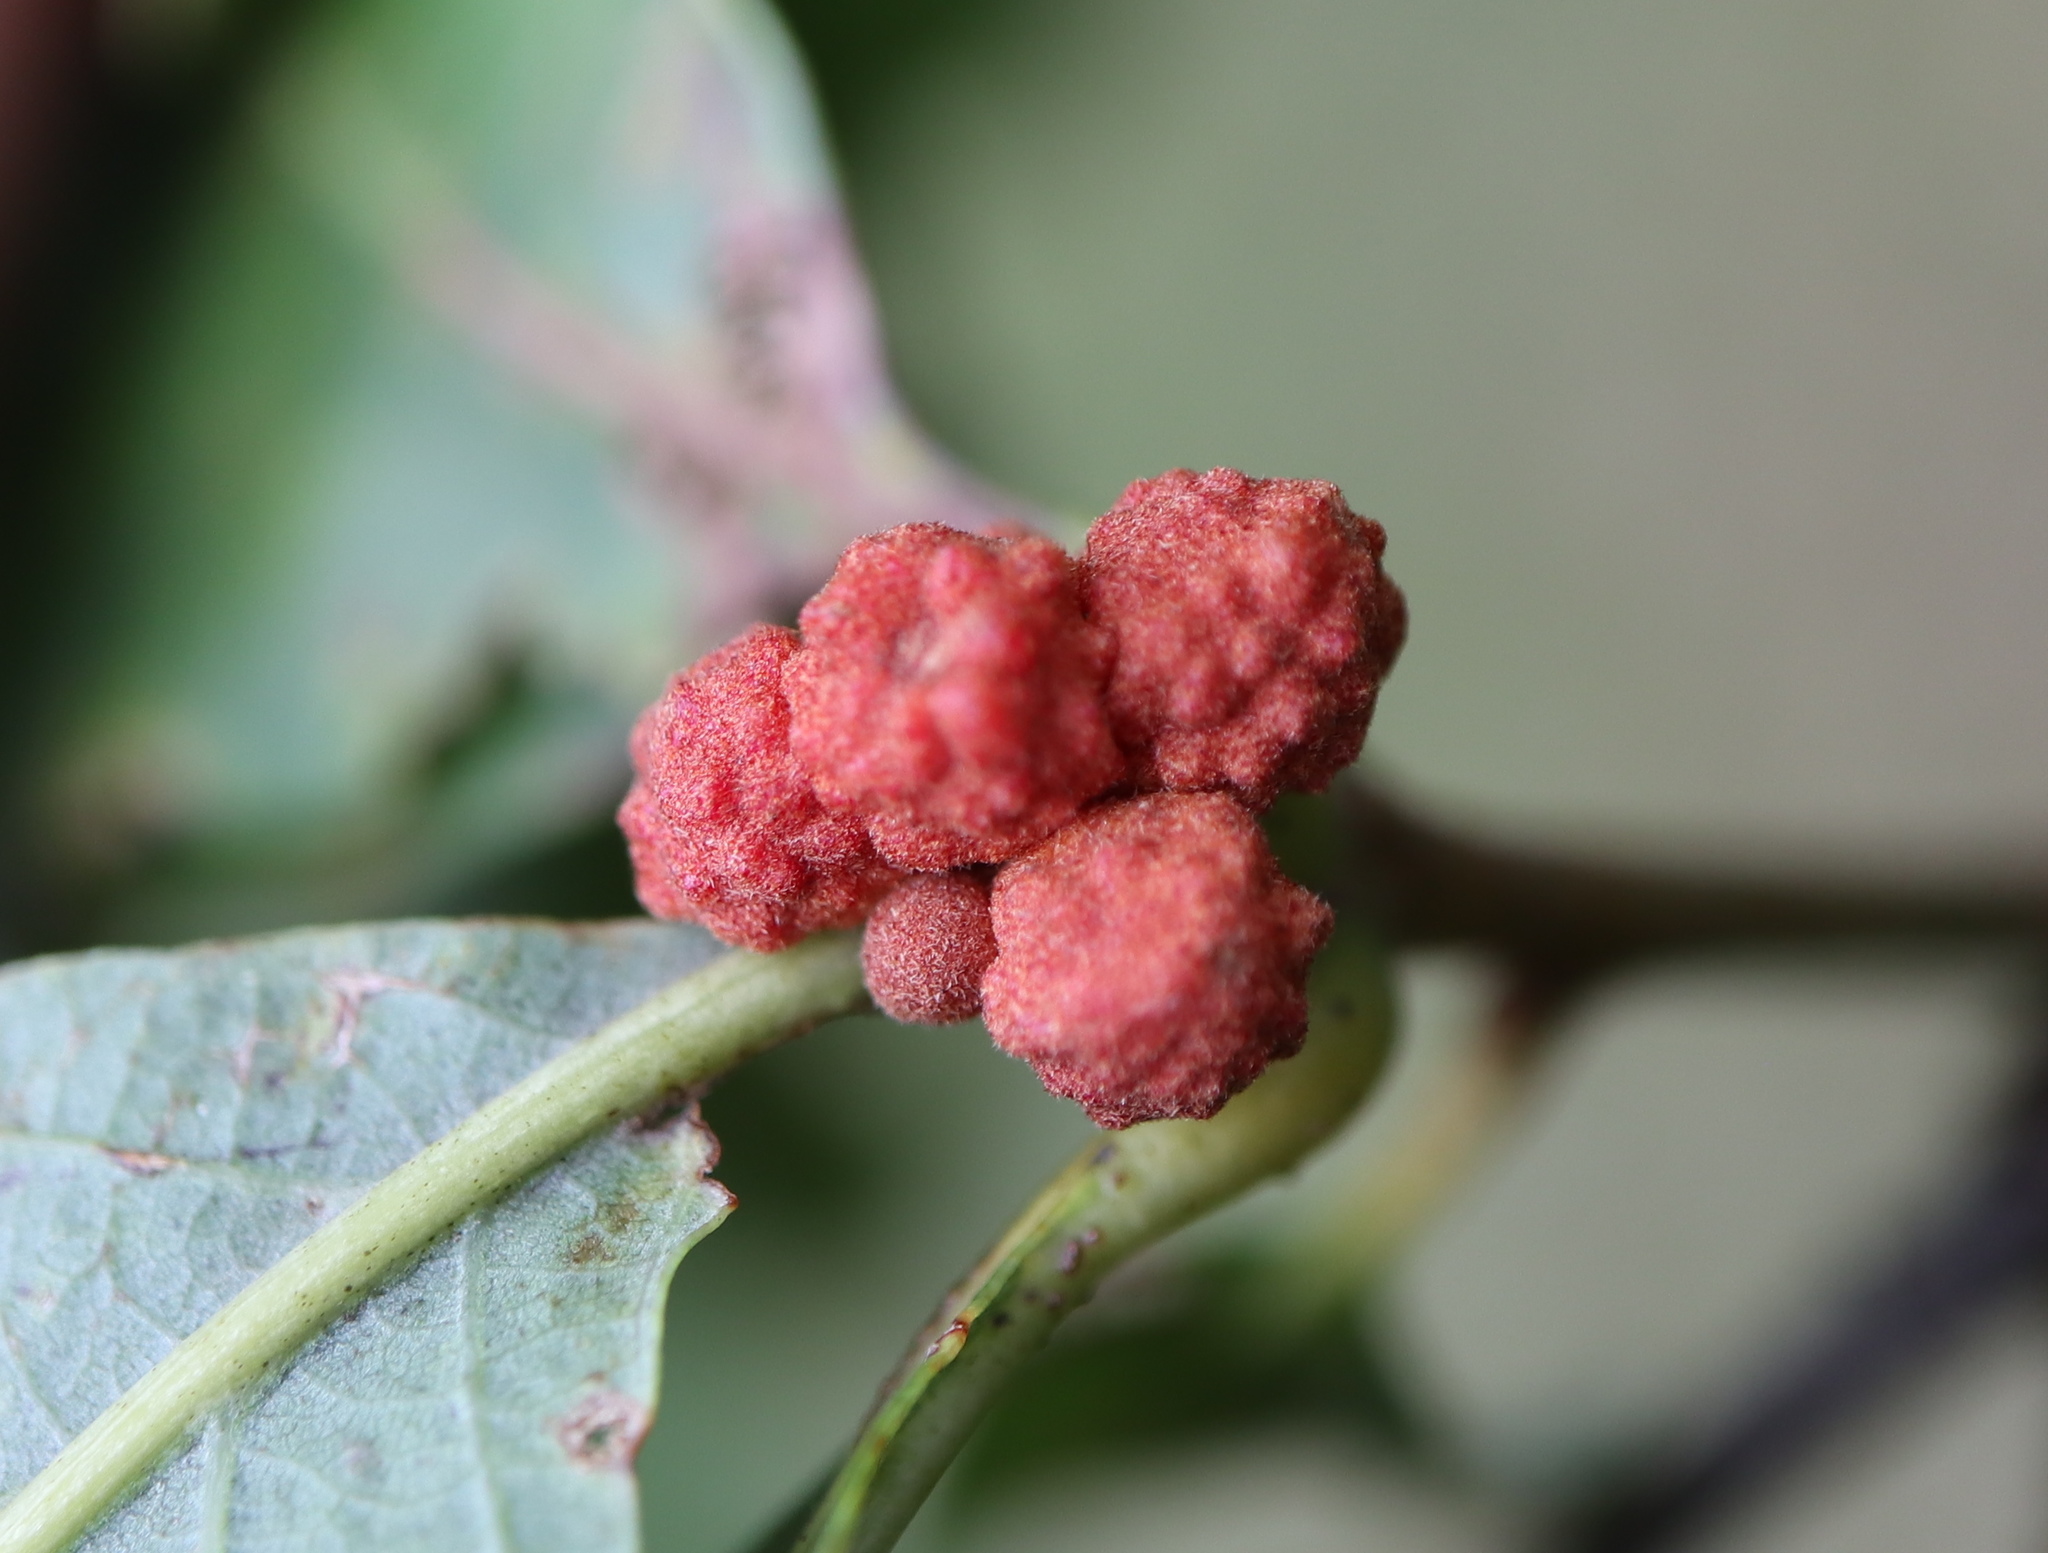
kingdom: Animalia
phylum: Arthropoda
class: Insecta
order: Hymenoptera
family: Cynipidae
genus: Andricus
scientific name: Andricus
